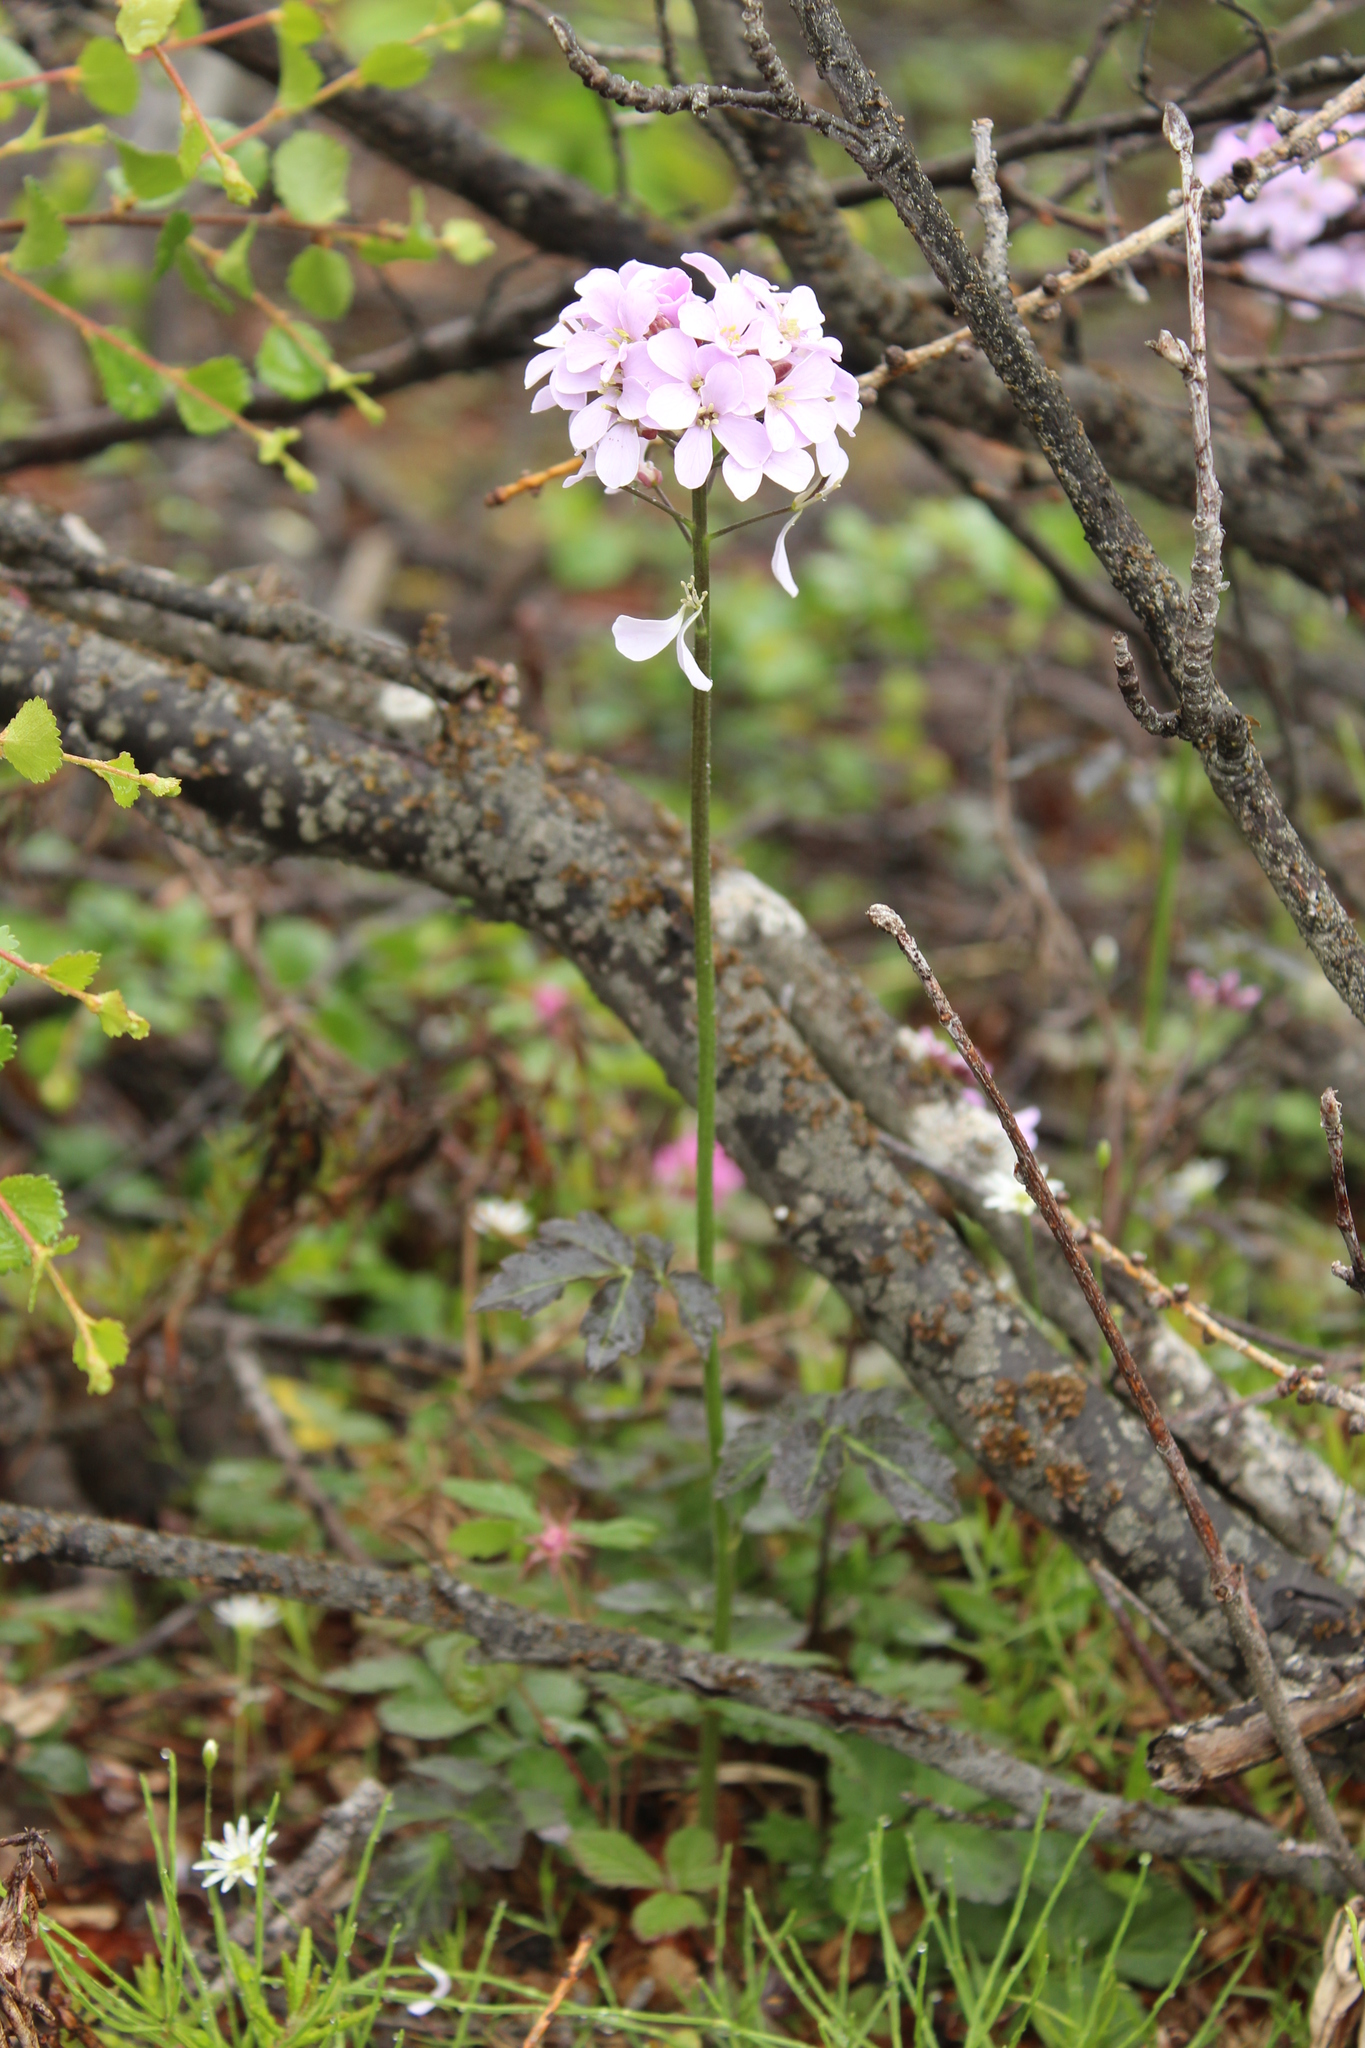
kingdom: Plantae
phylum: Tracheophyta
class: Magnoliopsida
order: Brassicales
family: Brassicaceae
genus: Cardamine
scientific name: Cardamine macrophylla
